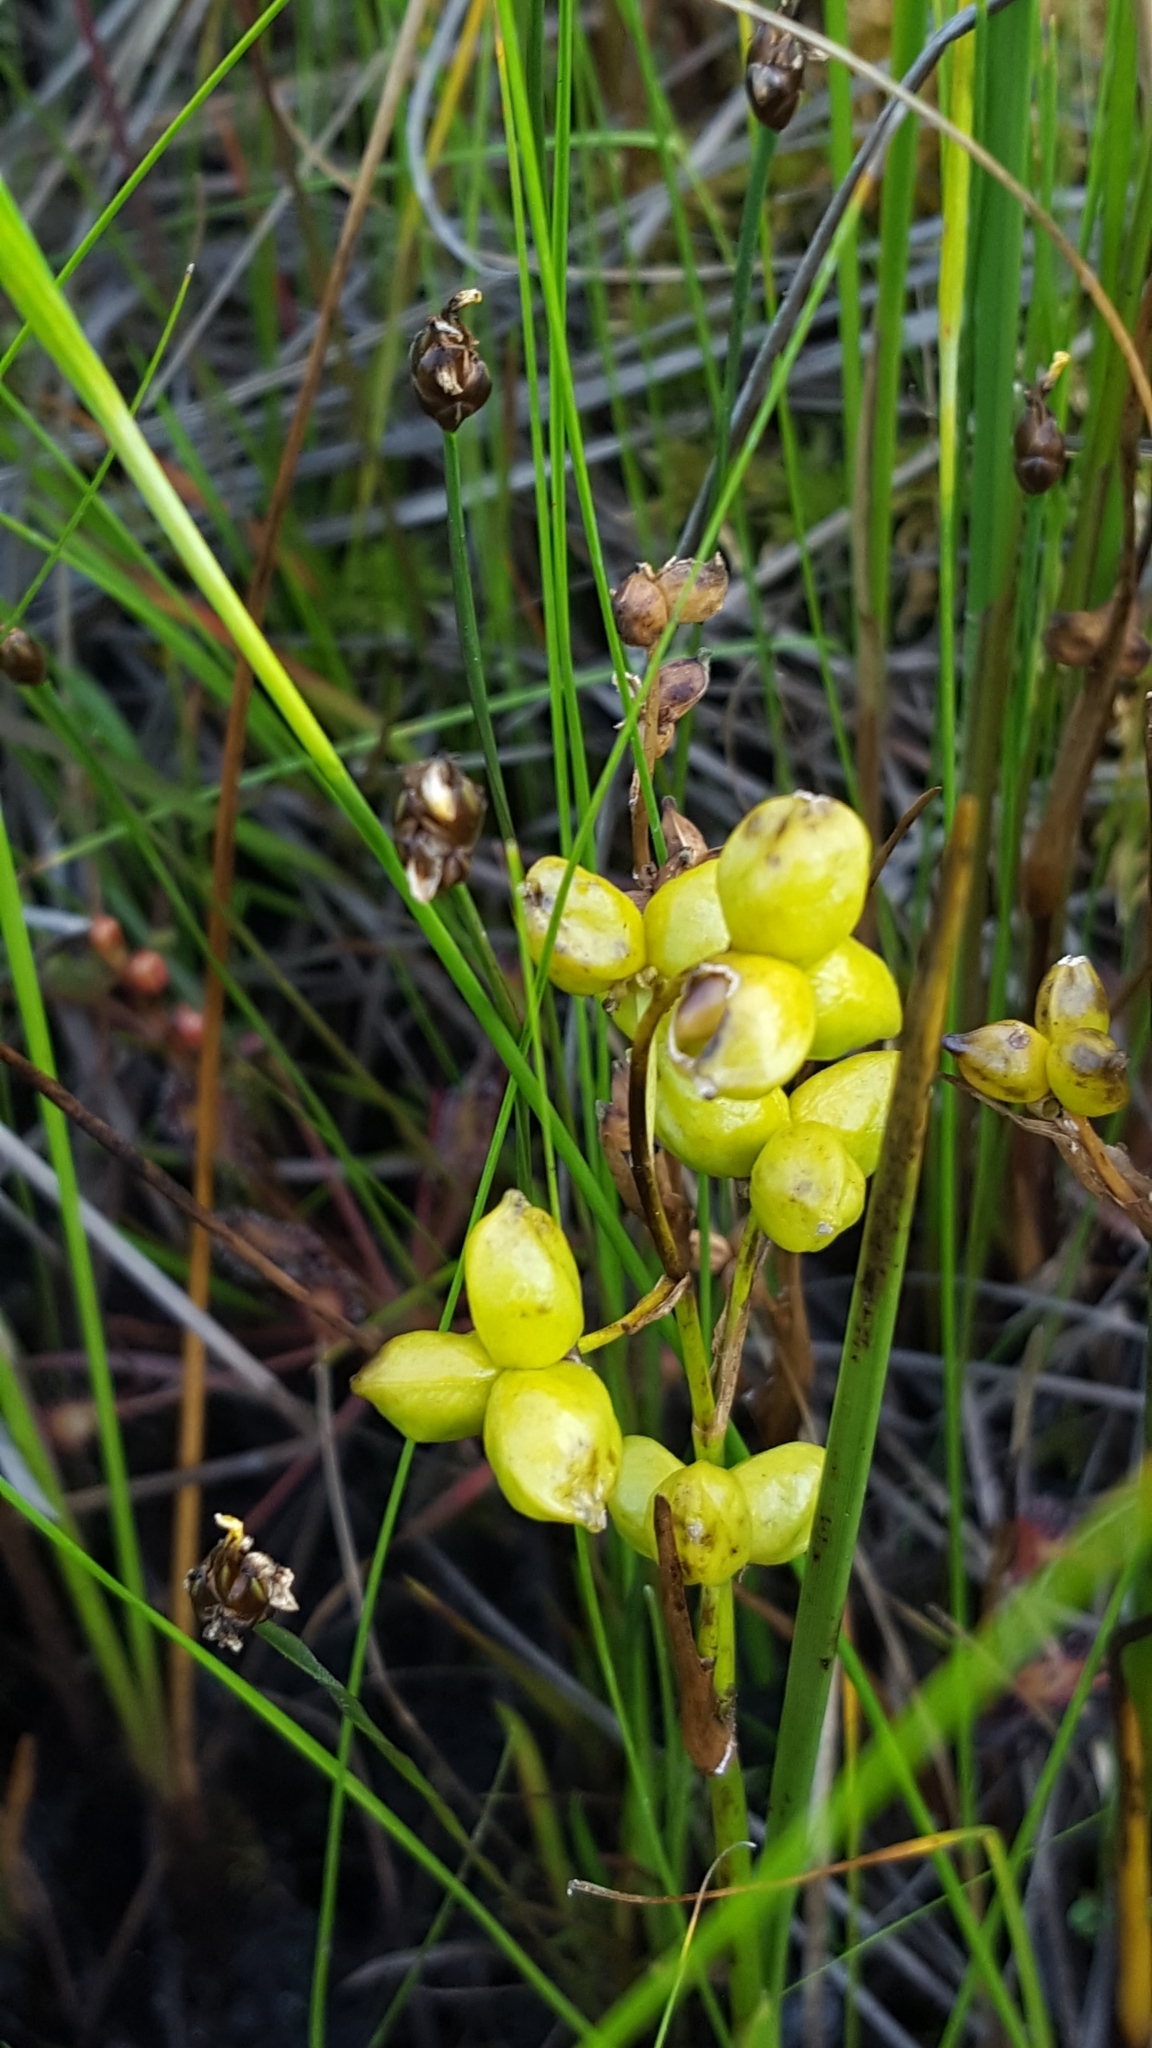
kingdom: Plantae
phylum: Tracheophyta
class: Liliopsida
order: Alismatales
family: Scheuchzeriaceae
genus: Scheuchzeria
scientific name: Scheuchzeria palustris
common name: Rannoch-rush
